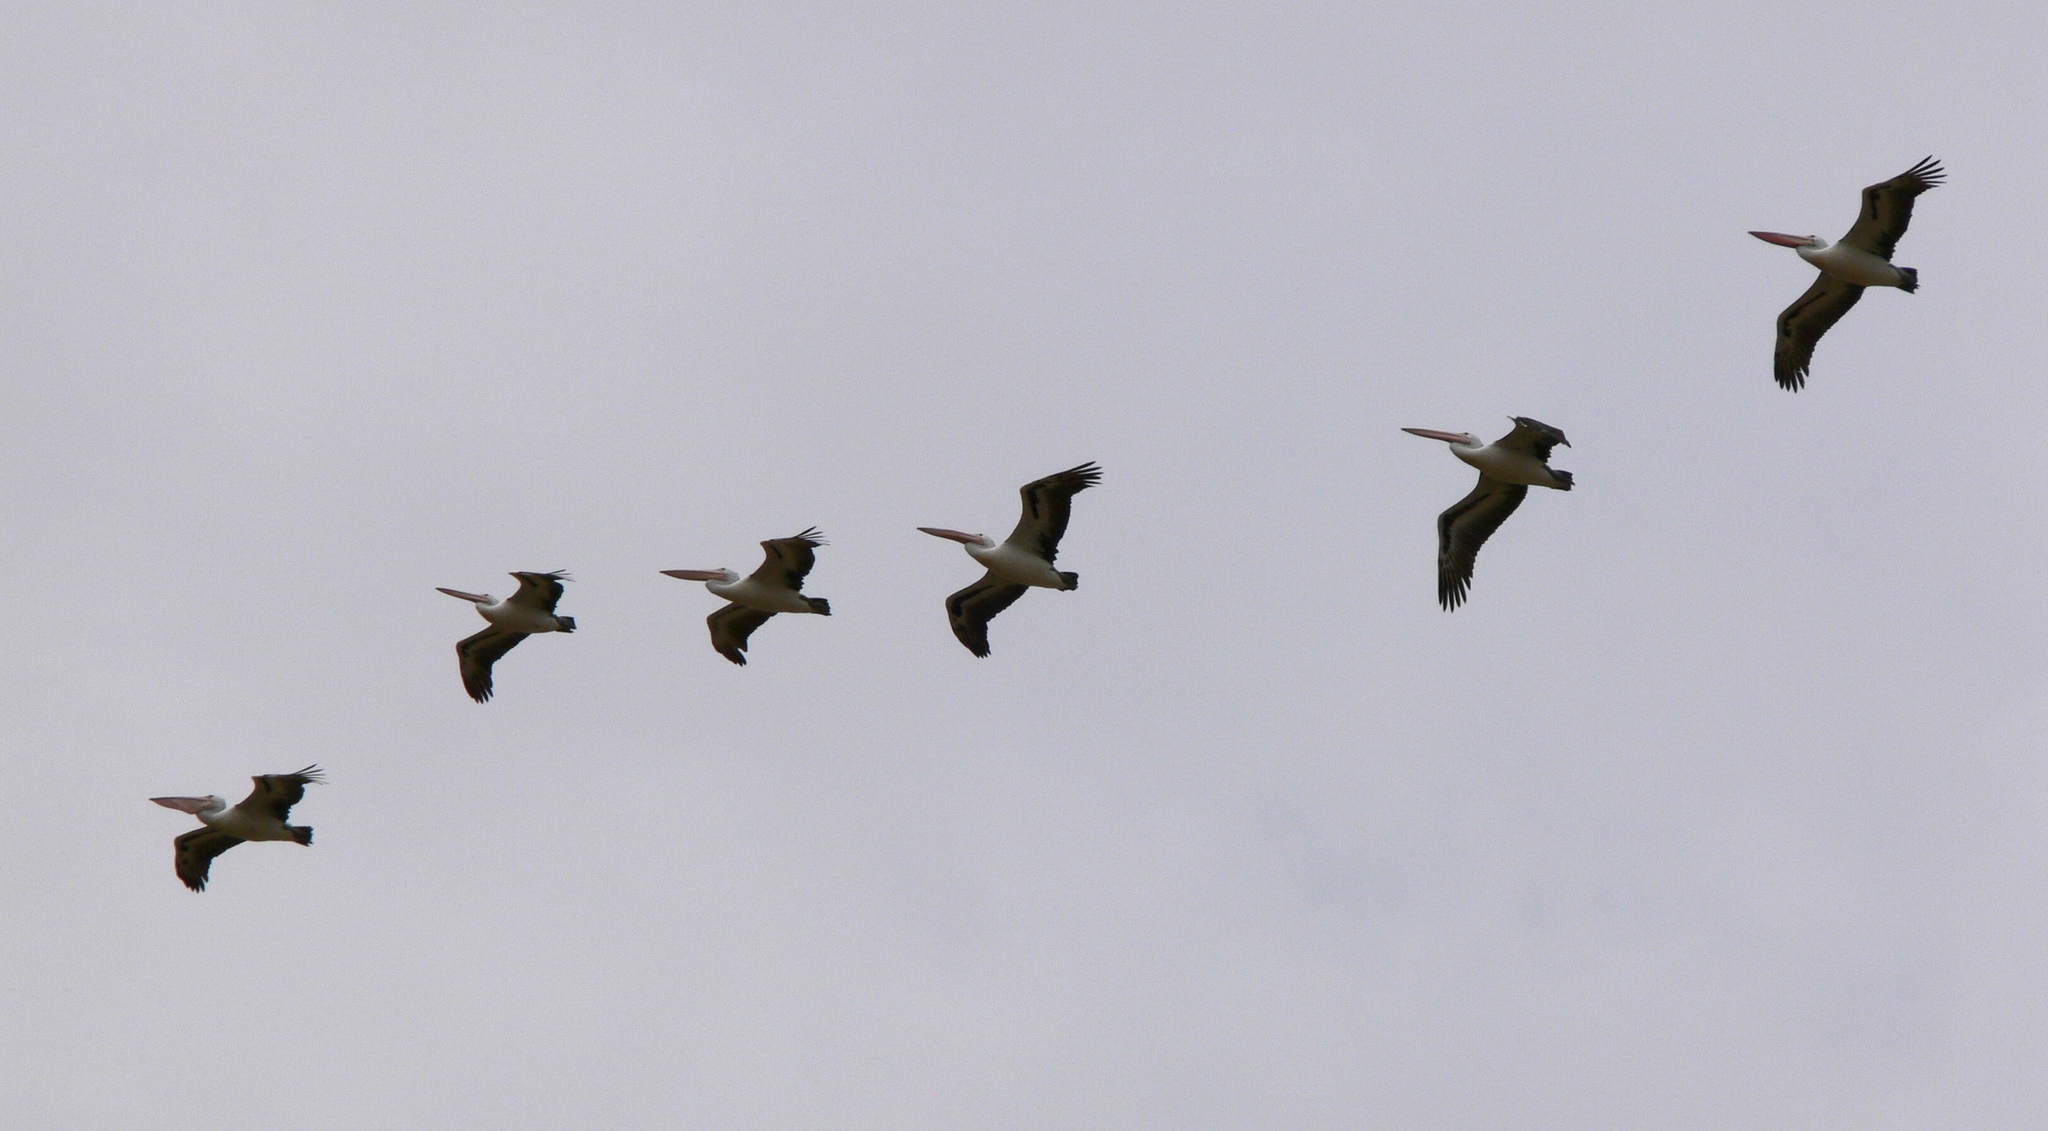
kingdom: Animalia
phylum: Chordata
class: Aves
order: Pelecaniformes
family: Pelecanidae
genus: Pelecanus
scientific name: Pelecanus conspicillatus
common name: Australian pelican
